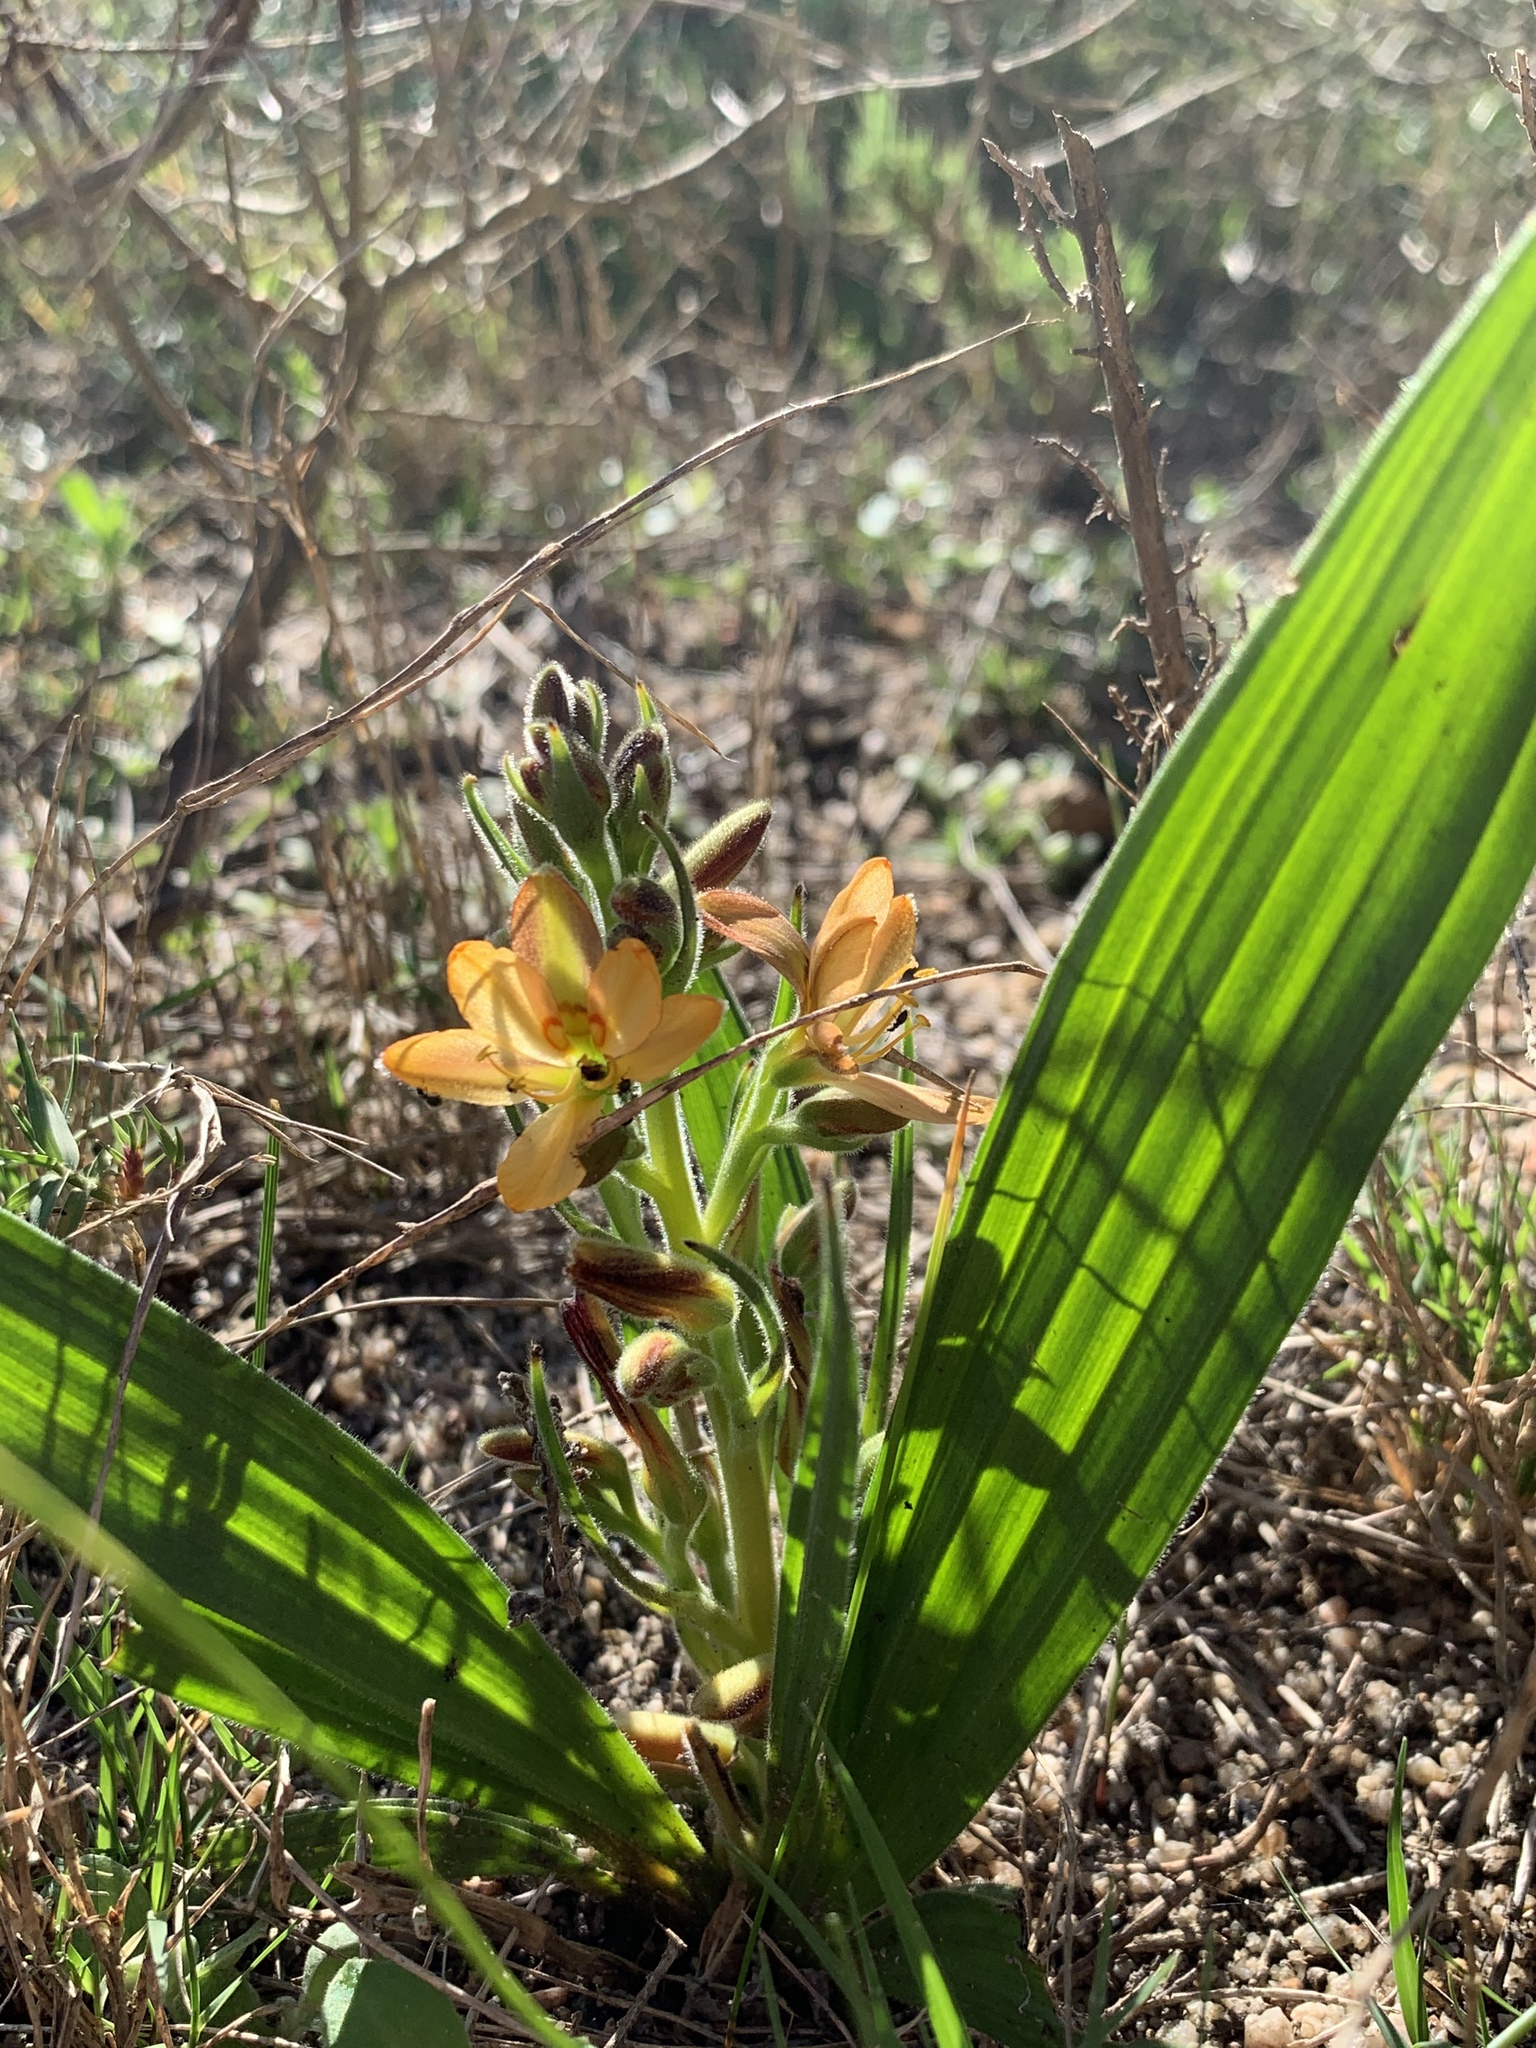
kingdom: Plantae
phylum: Tracheophyta
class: Liliopsida
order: Commelinales
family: Haemodoraceae
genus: Wachendorfia
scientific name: Wachendorfia multiflora
